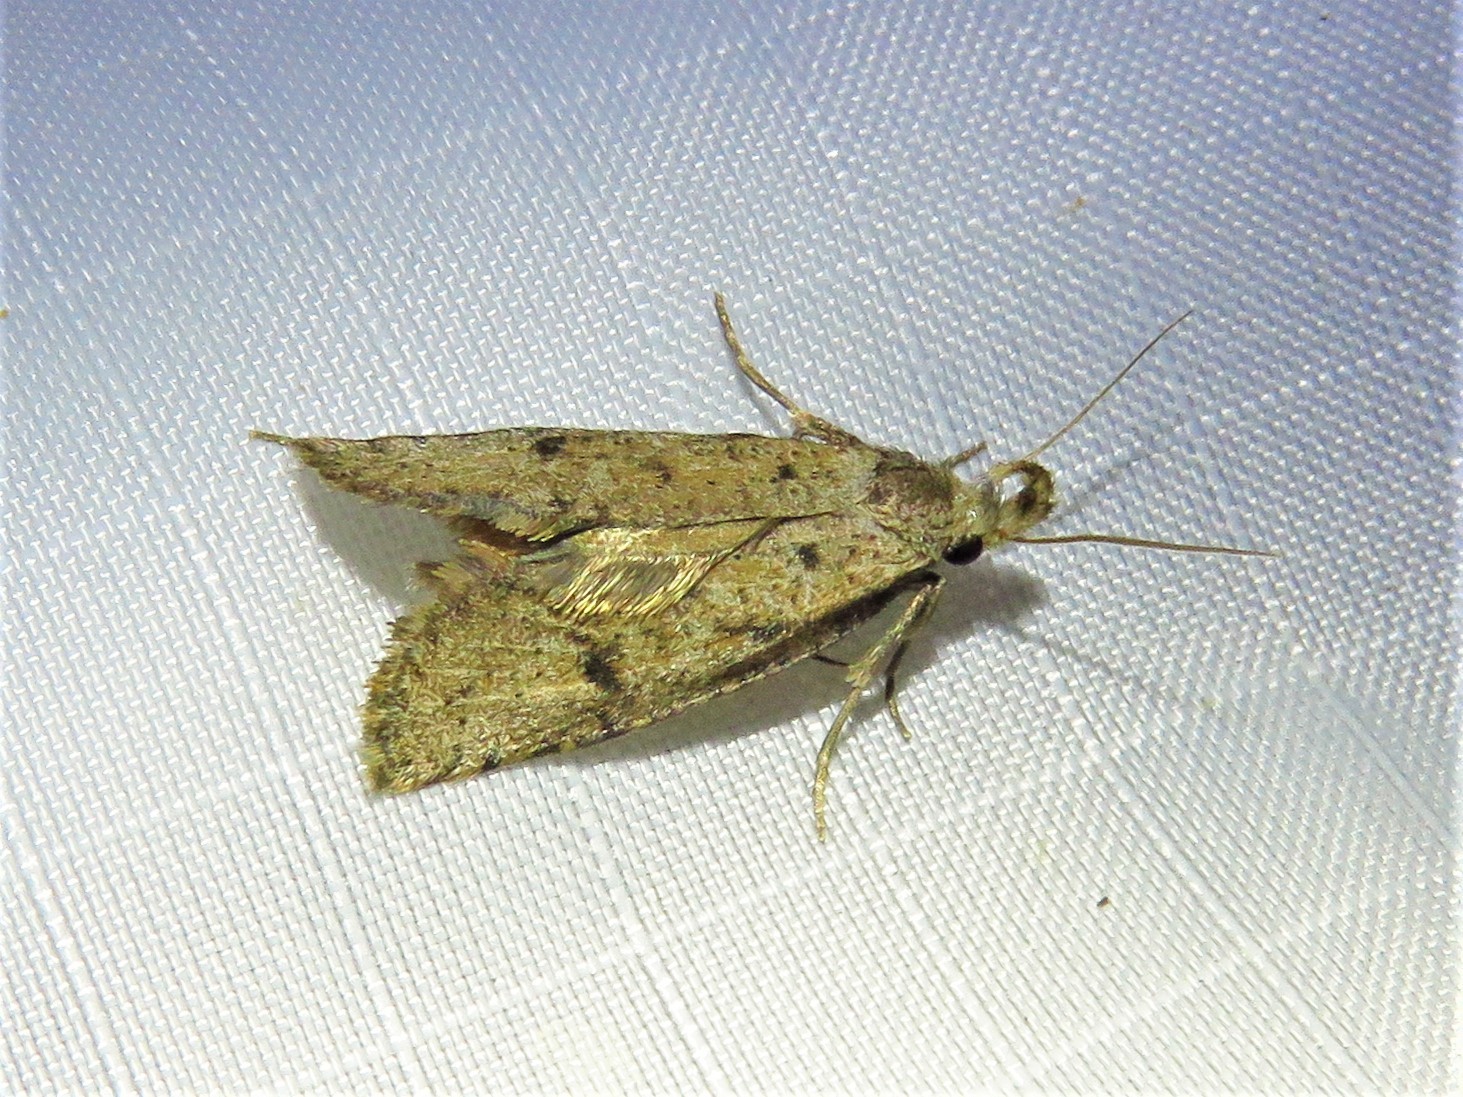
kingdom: Animalia
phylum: Arthropoda
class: Insecta
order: Lepidoptera
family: Tineidae
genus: Acrolophus
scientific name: Acrolophus mortipennella
